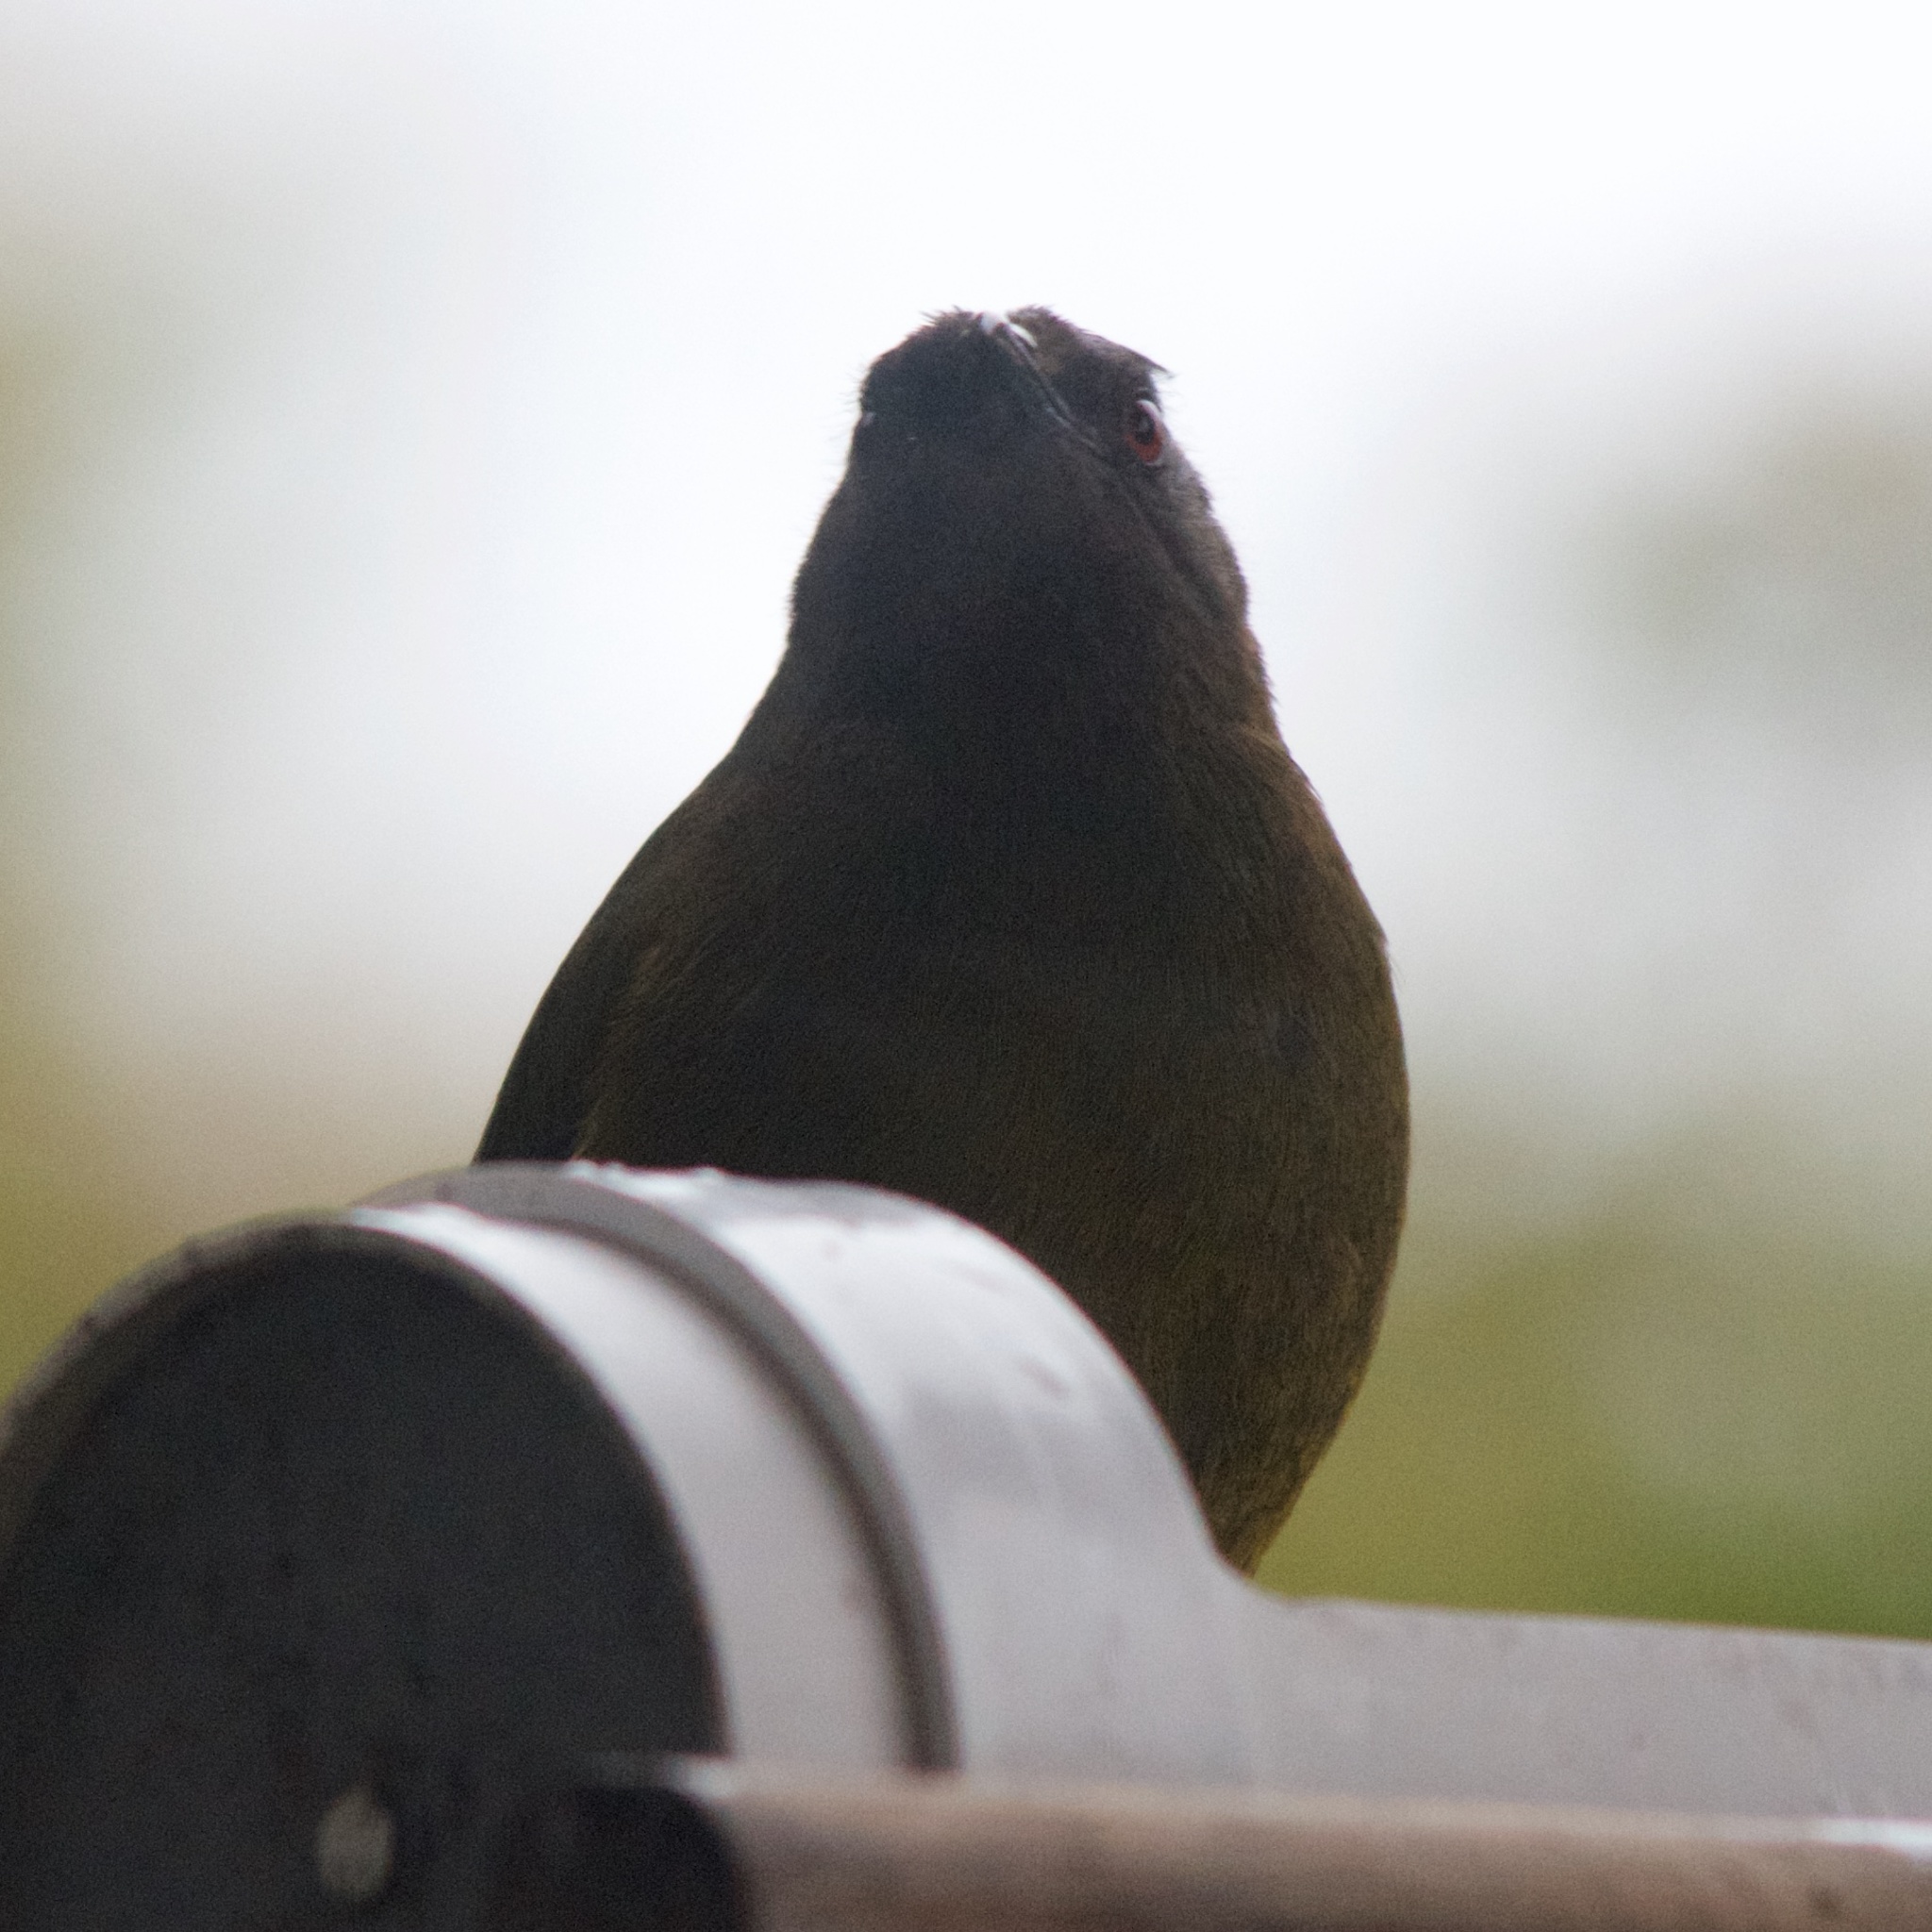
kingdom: Animalia
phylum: Chordata
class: Aves
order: Passeriformes
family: Meliphagidae
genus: Anthornis
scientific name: Anthornis melanura
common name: New zealand bellbird
